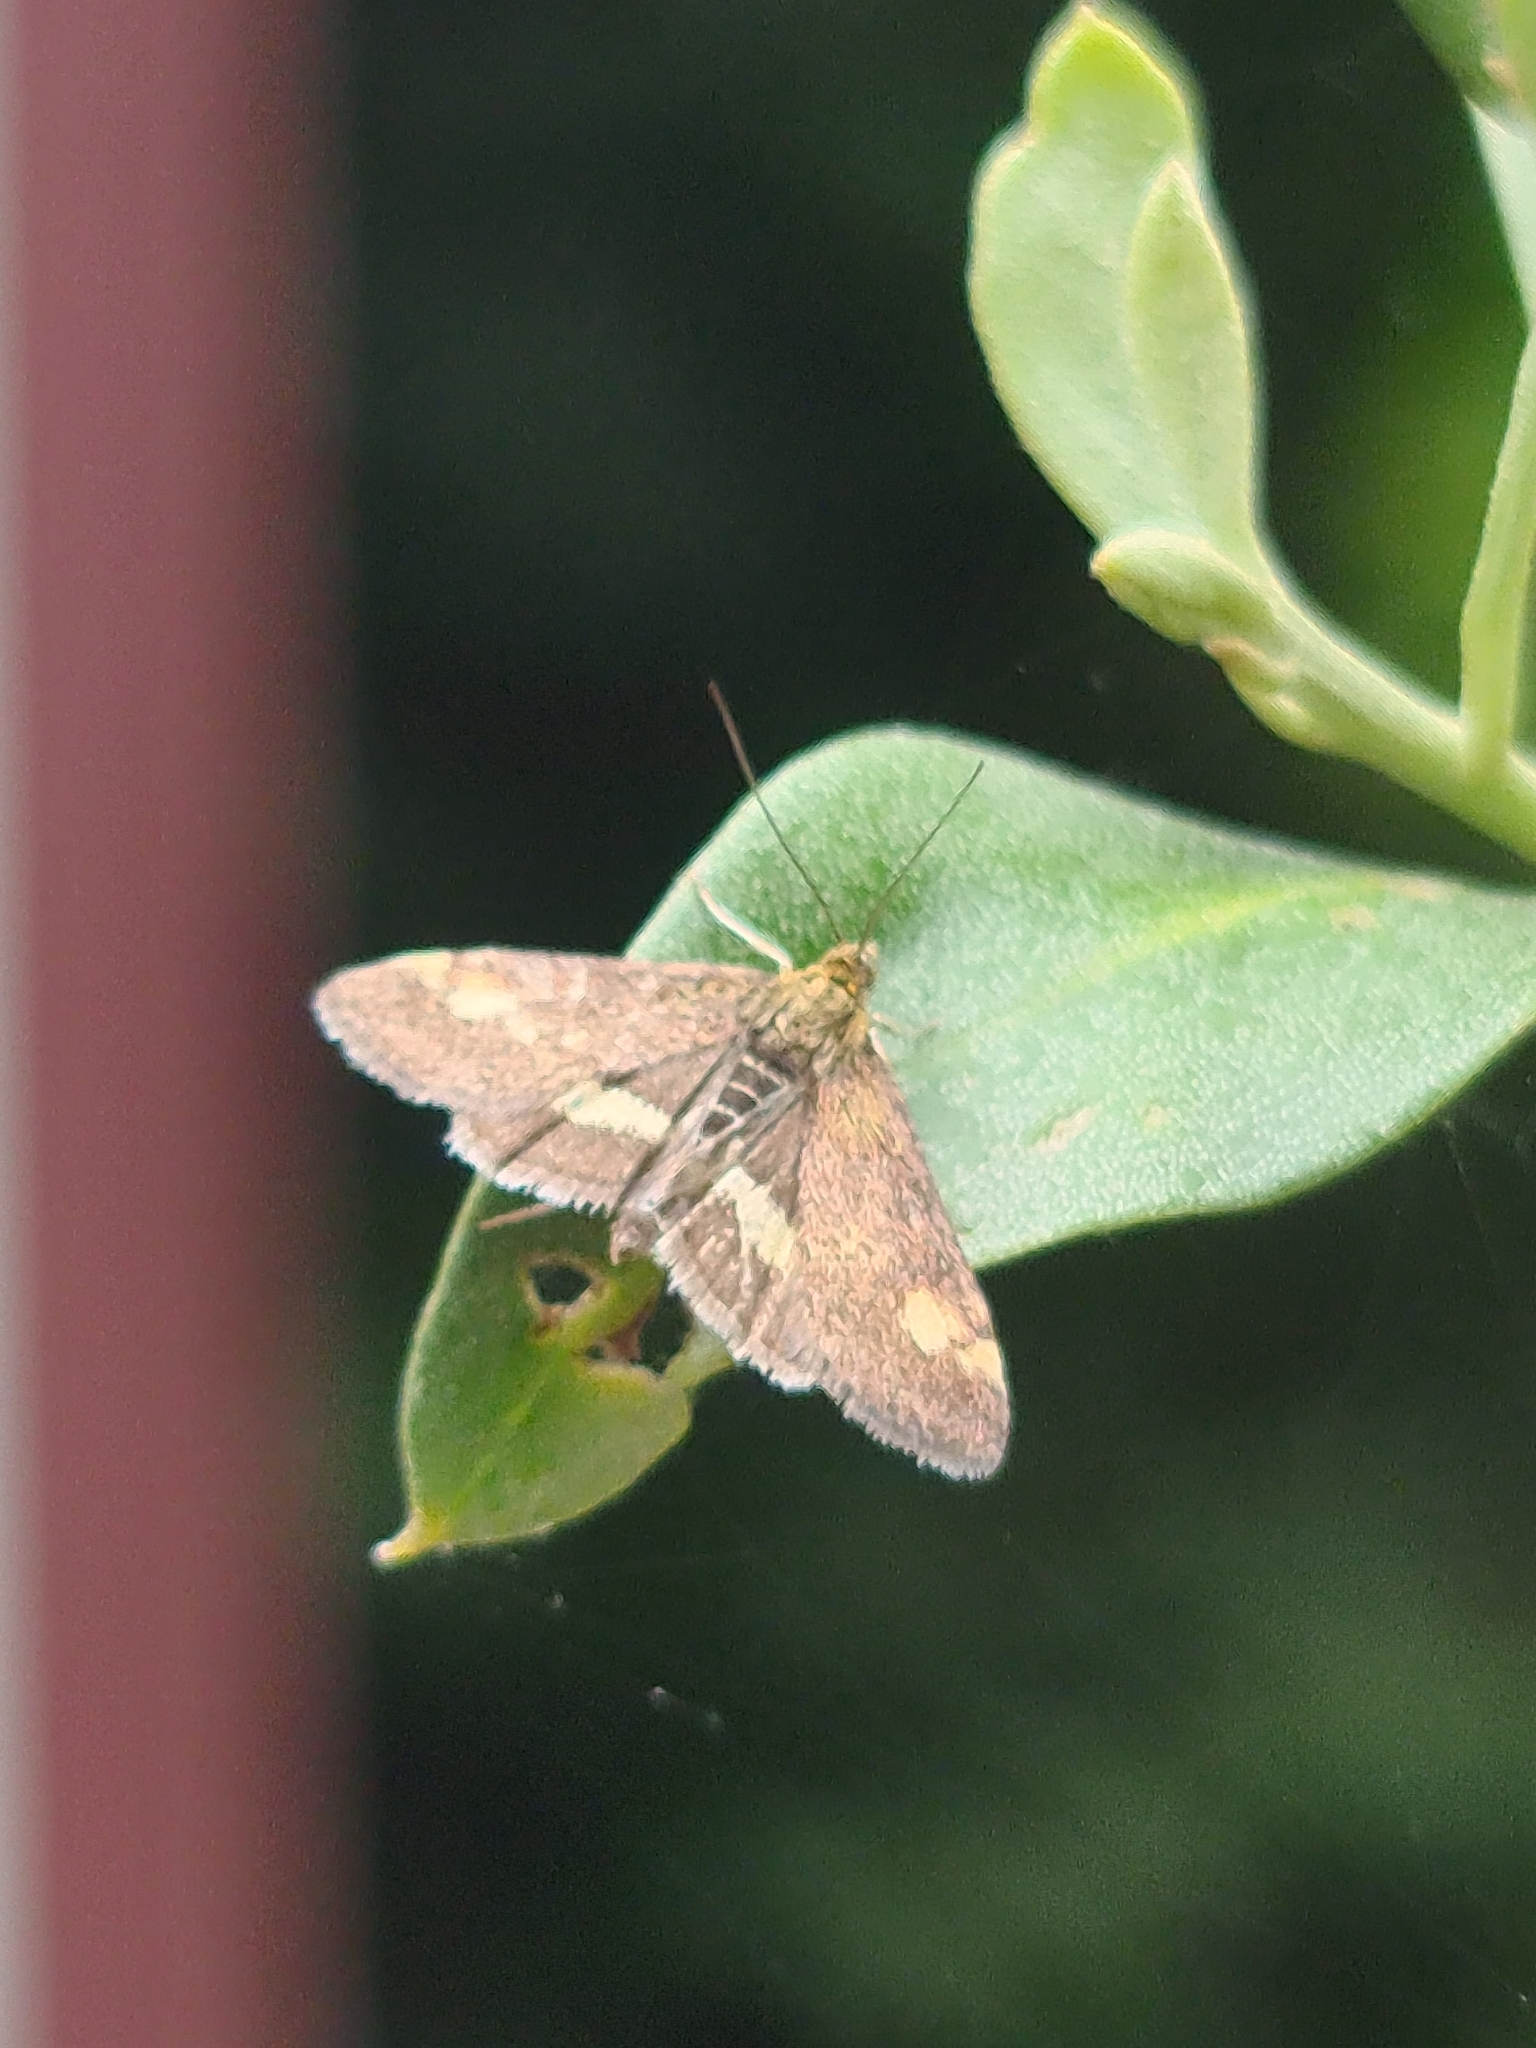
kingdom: Animalia
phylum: Arthropoda
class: Insecta
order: Lepidoptera
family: Crambidae
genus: Pyrausta
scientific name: Pyrausta aurata
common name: Small purple & gold
